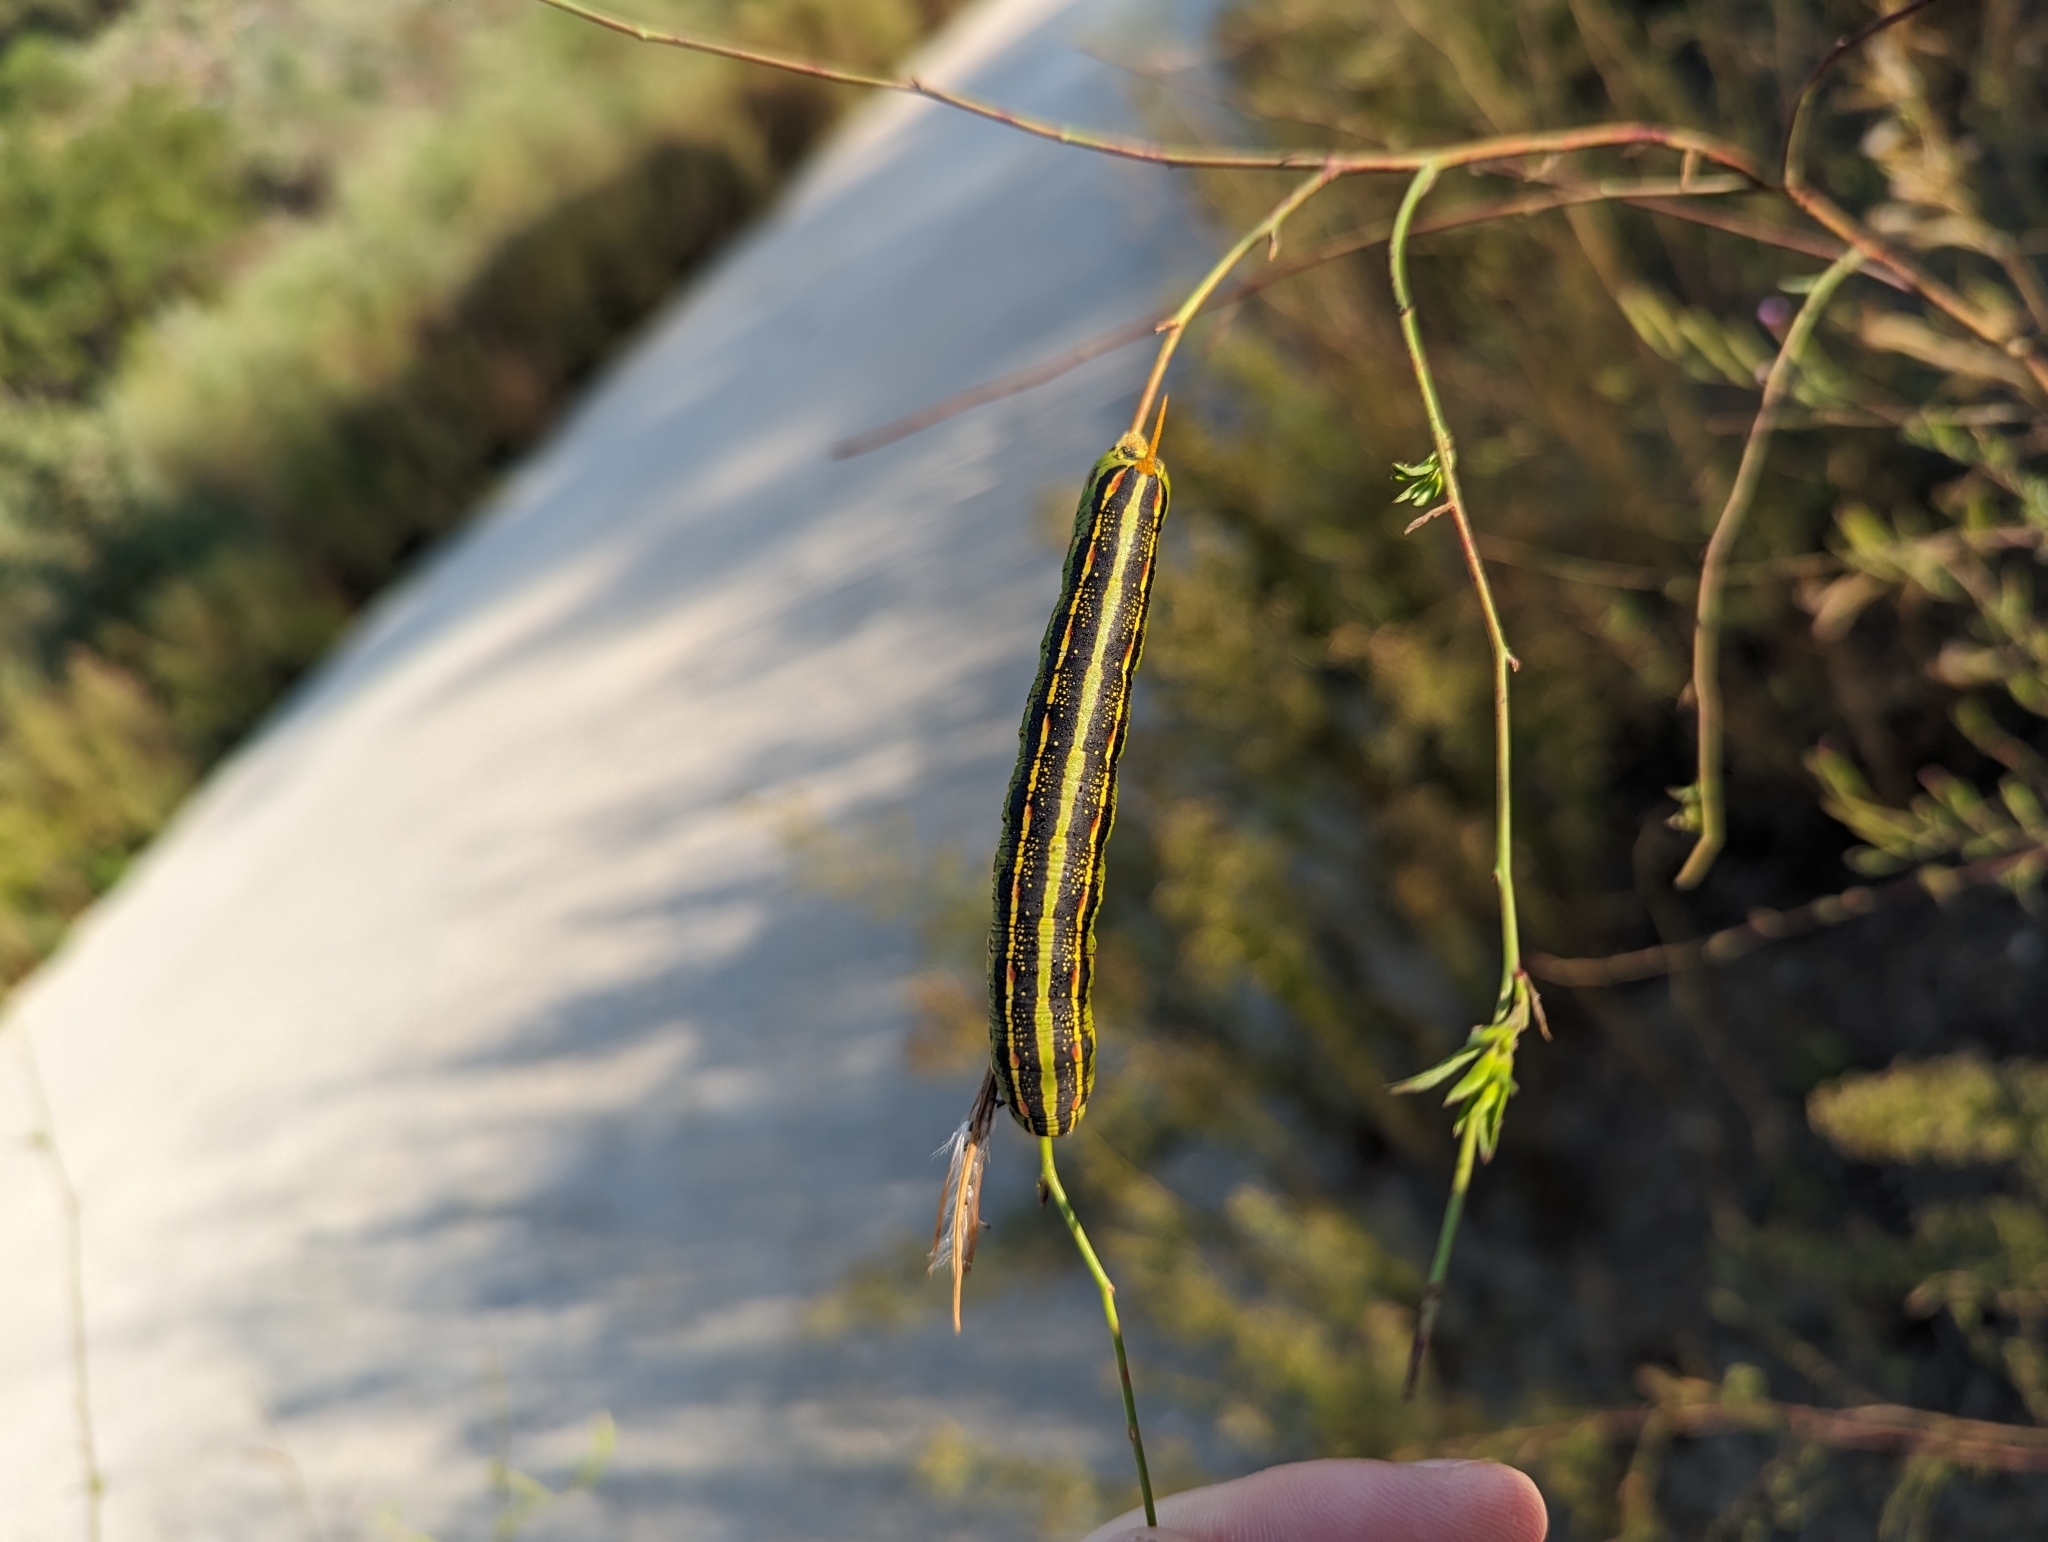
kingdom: Animalia
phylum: Arthropoda
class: Insecta
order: Lepidoptera
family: Sphingidae
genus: Hyles
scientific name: Hyles lineata
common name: White-lined sphinx
